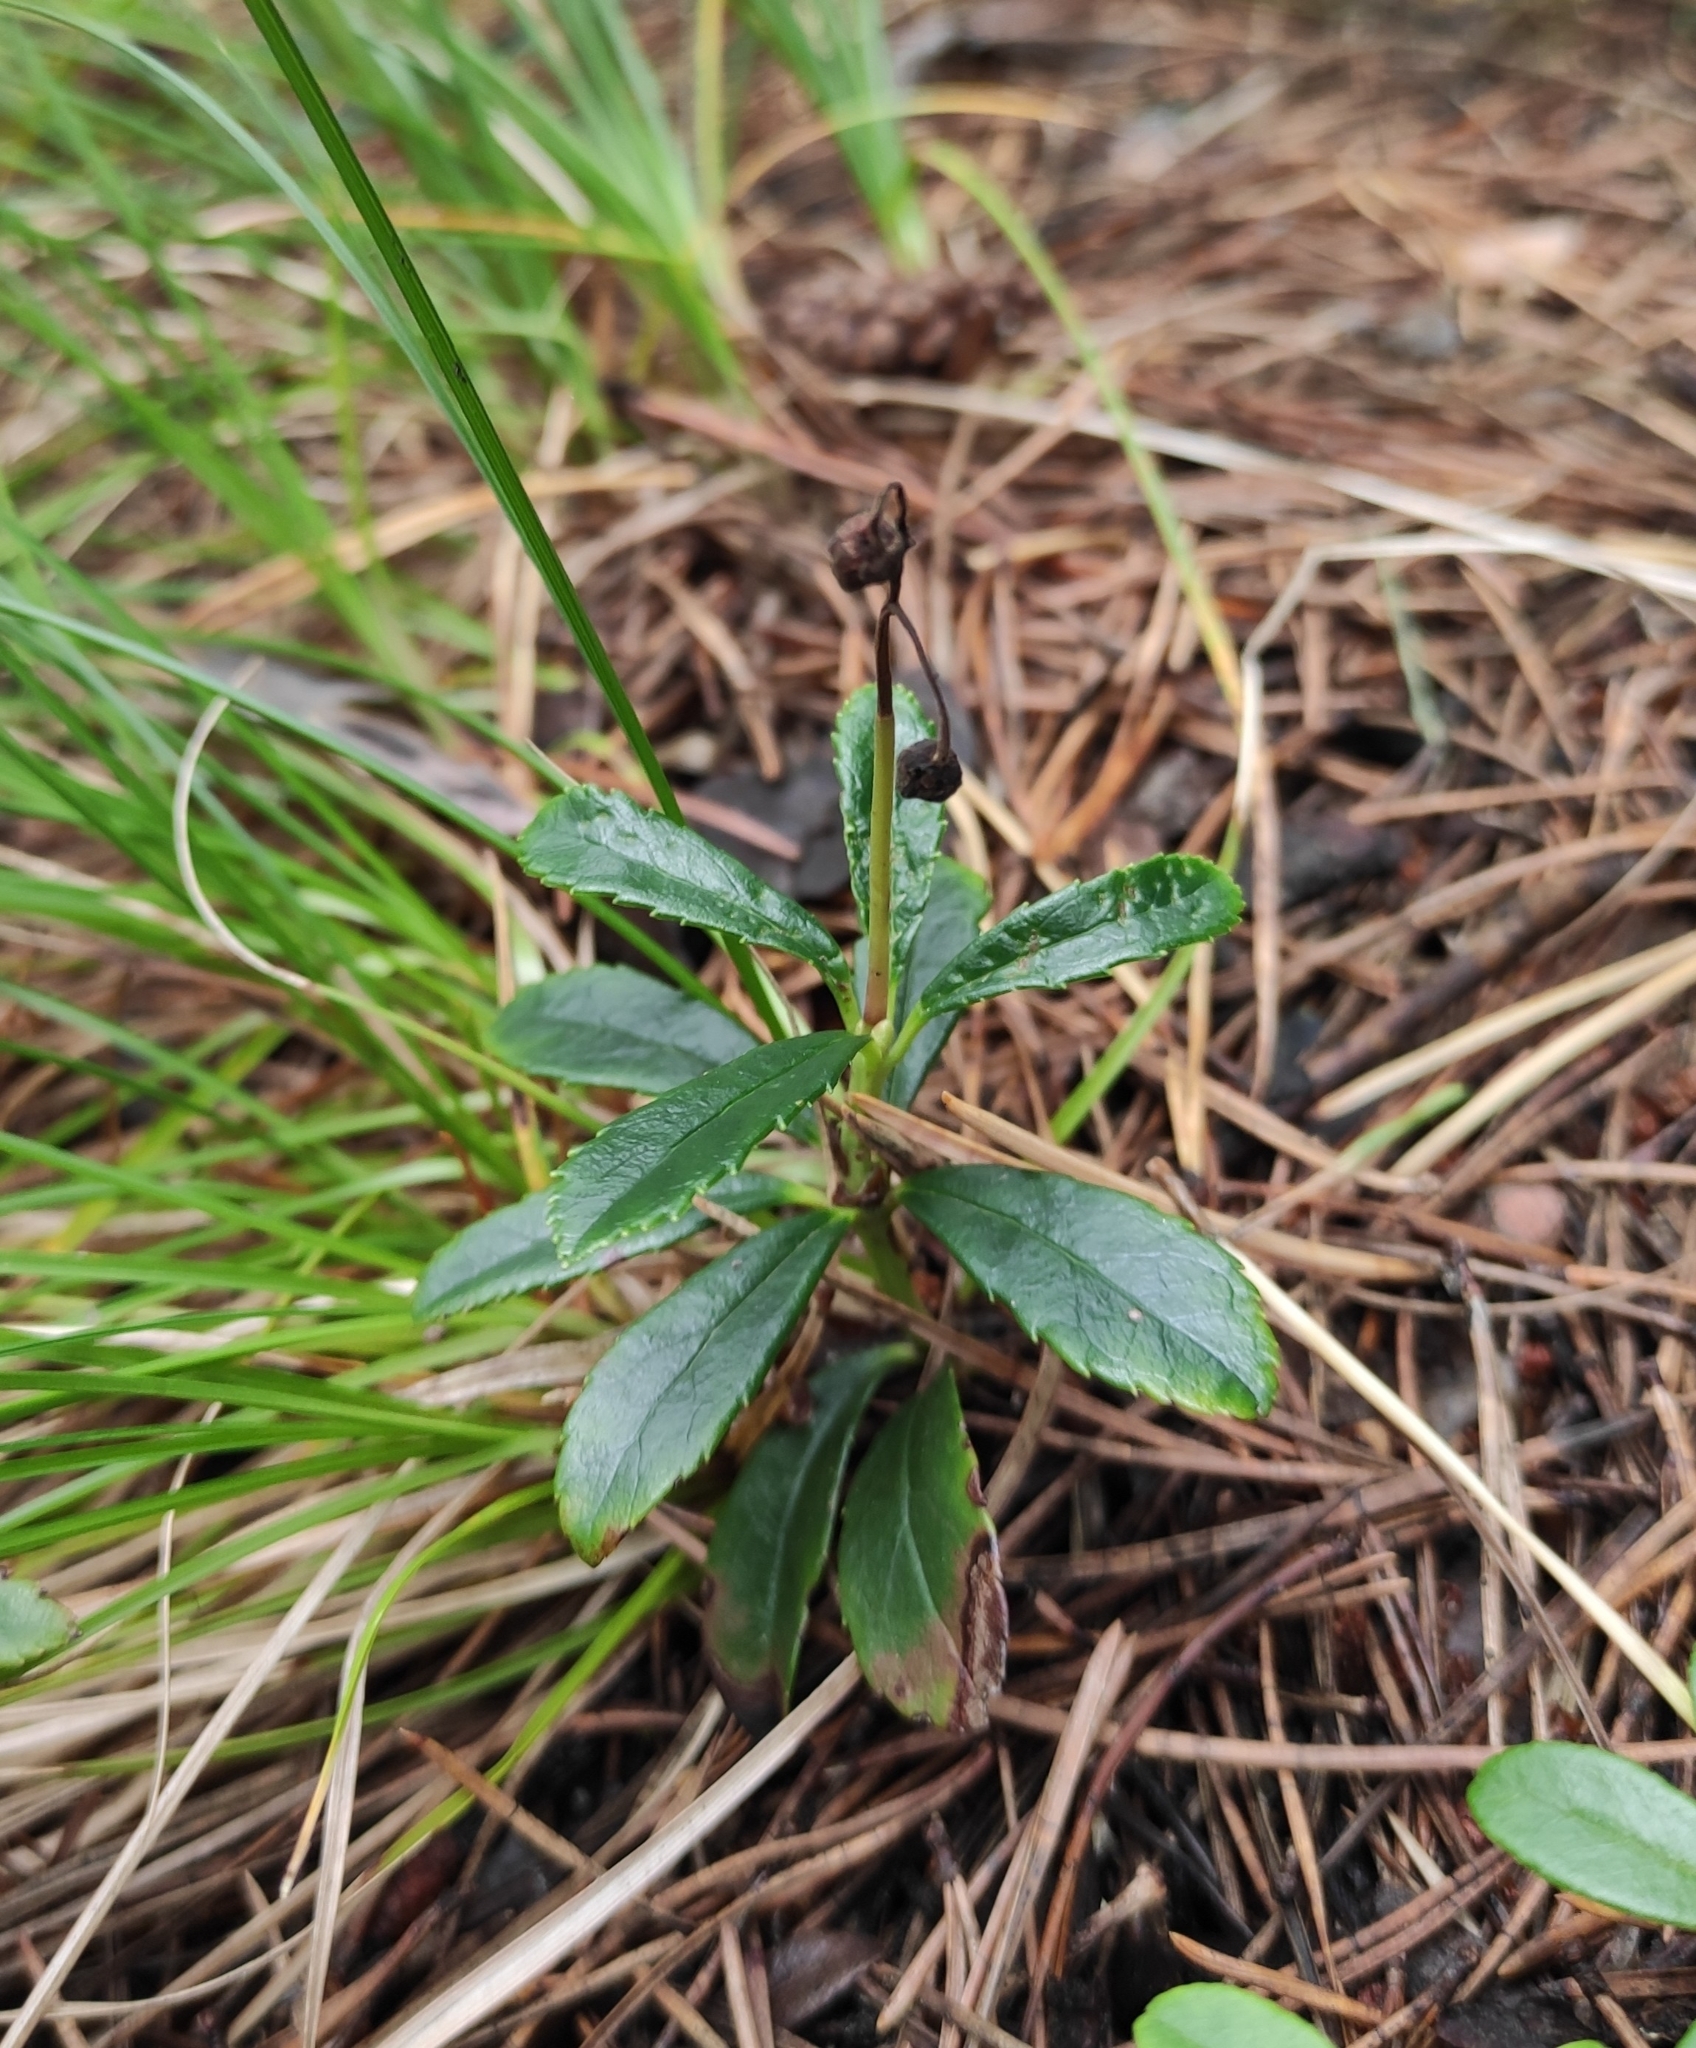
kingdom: Plantae
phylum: Tracheophyta
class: Magnoliopsida
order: Ericales
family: Ericaceae
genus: Chimaphila
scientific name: Chimaphila umbellata
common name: Pipsissewa
